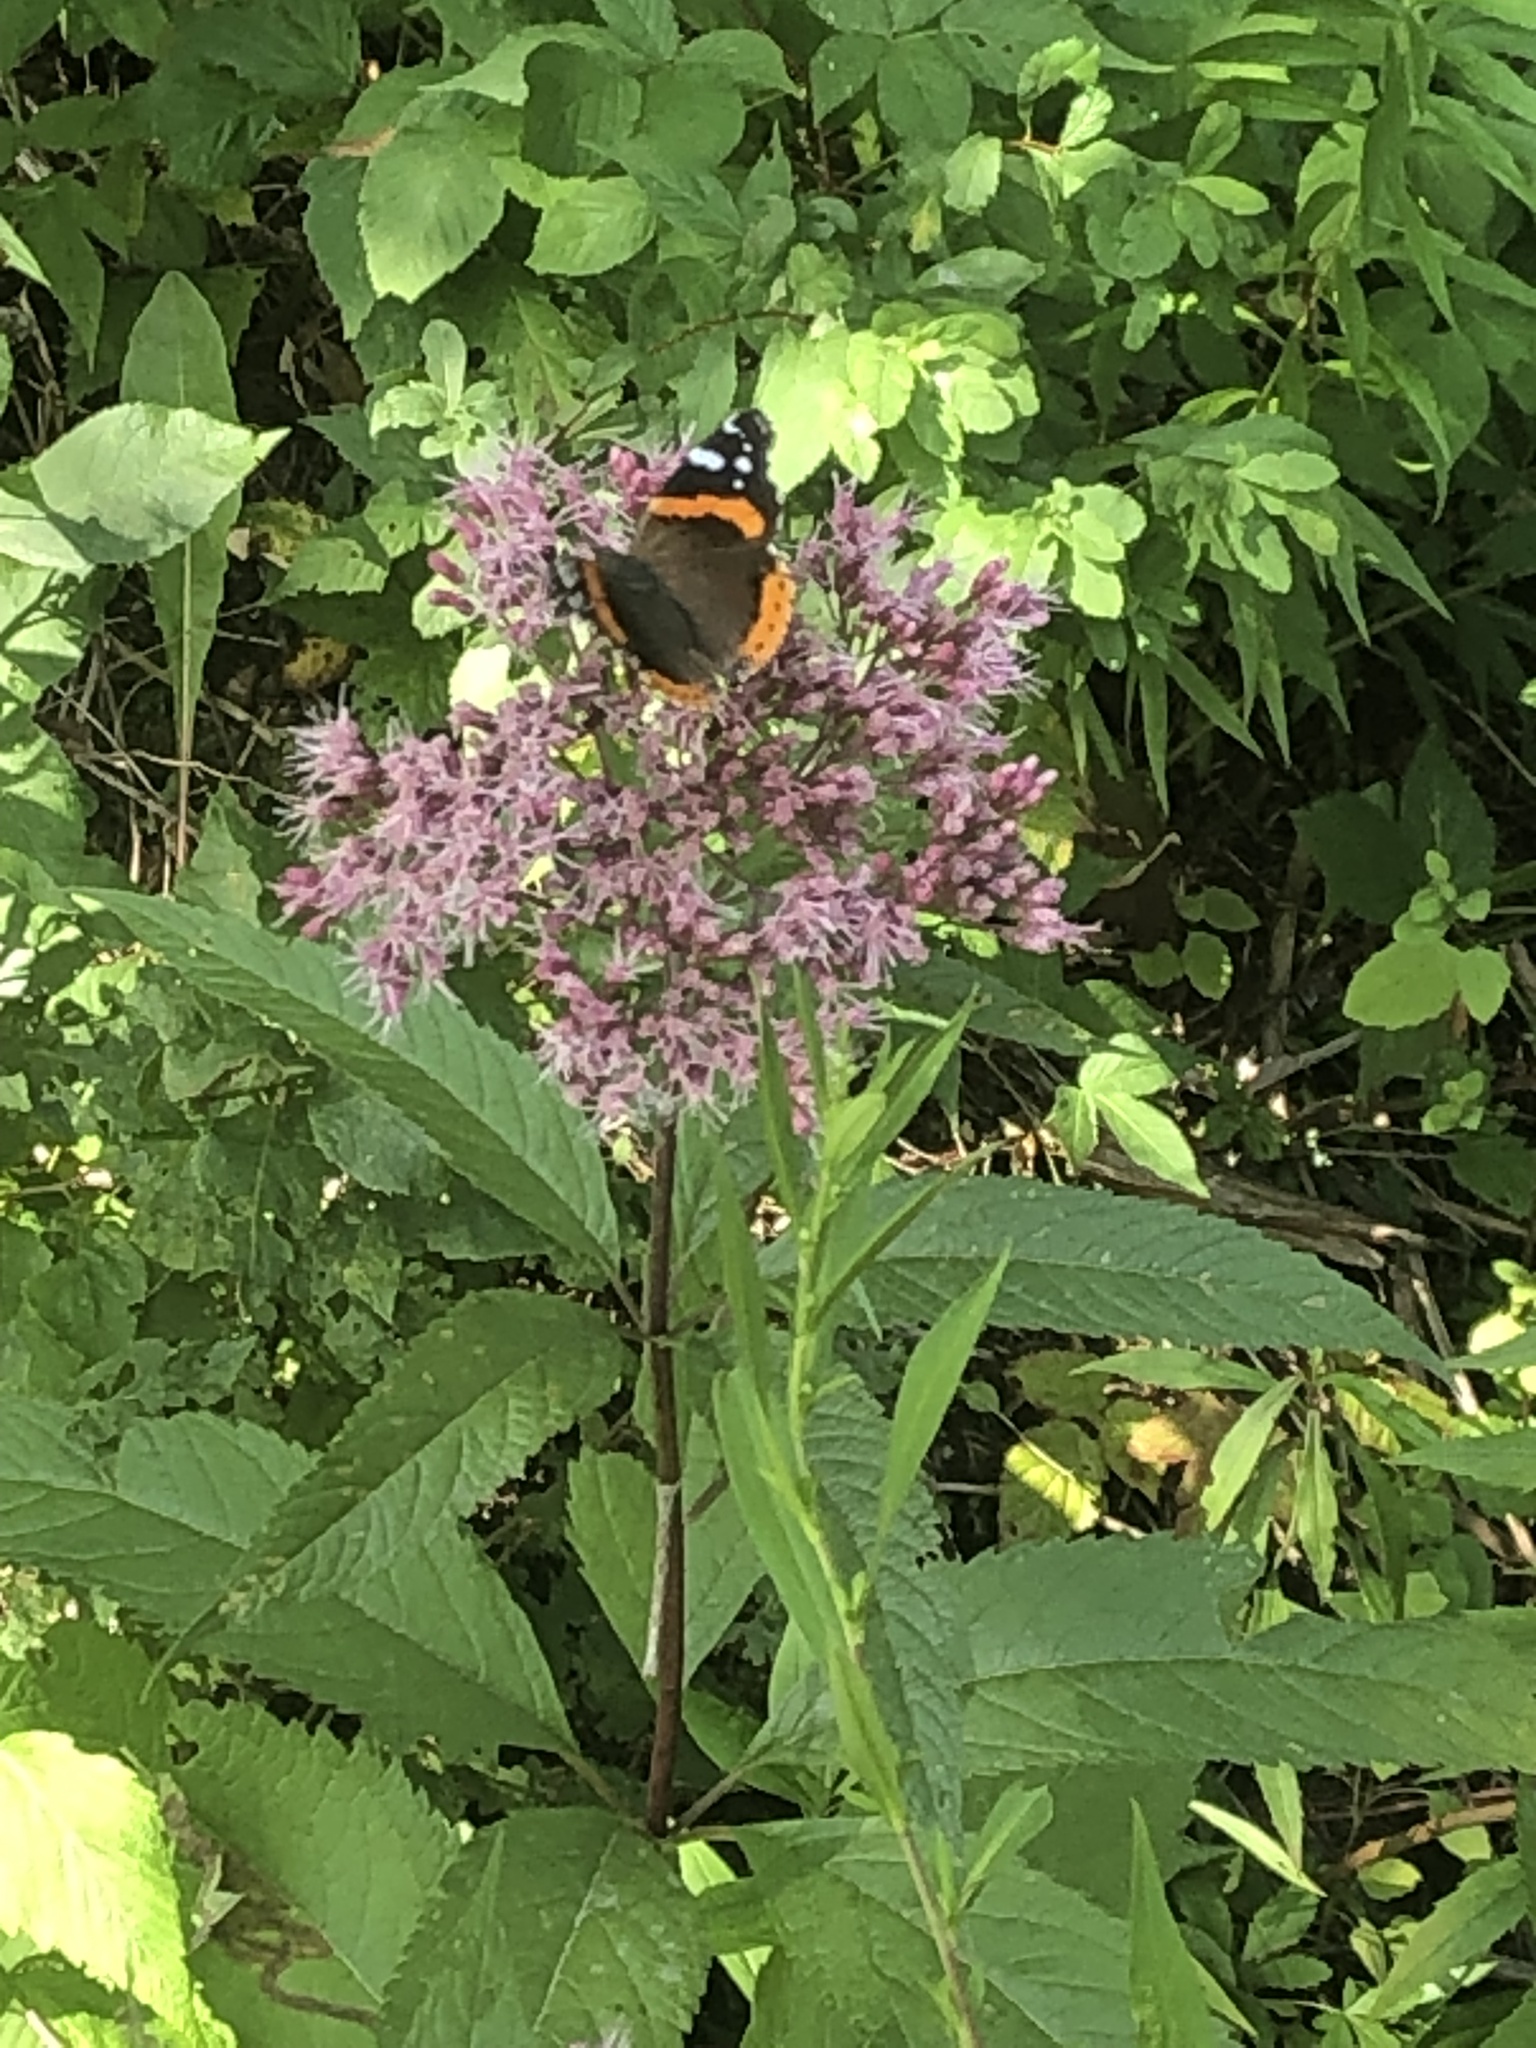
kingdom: Animalia
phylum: Arthropoda
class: Insecta
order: Lepidoptera
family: Nymphalidae
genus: Vanessa
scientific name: Vanessa atalanta
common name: Red admiral
